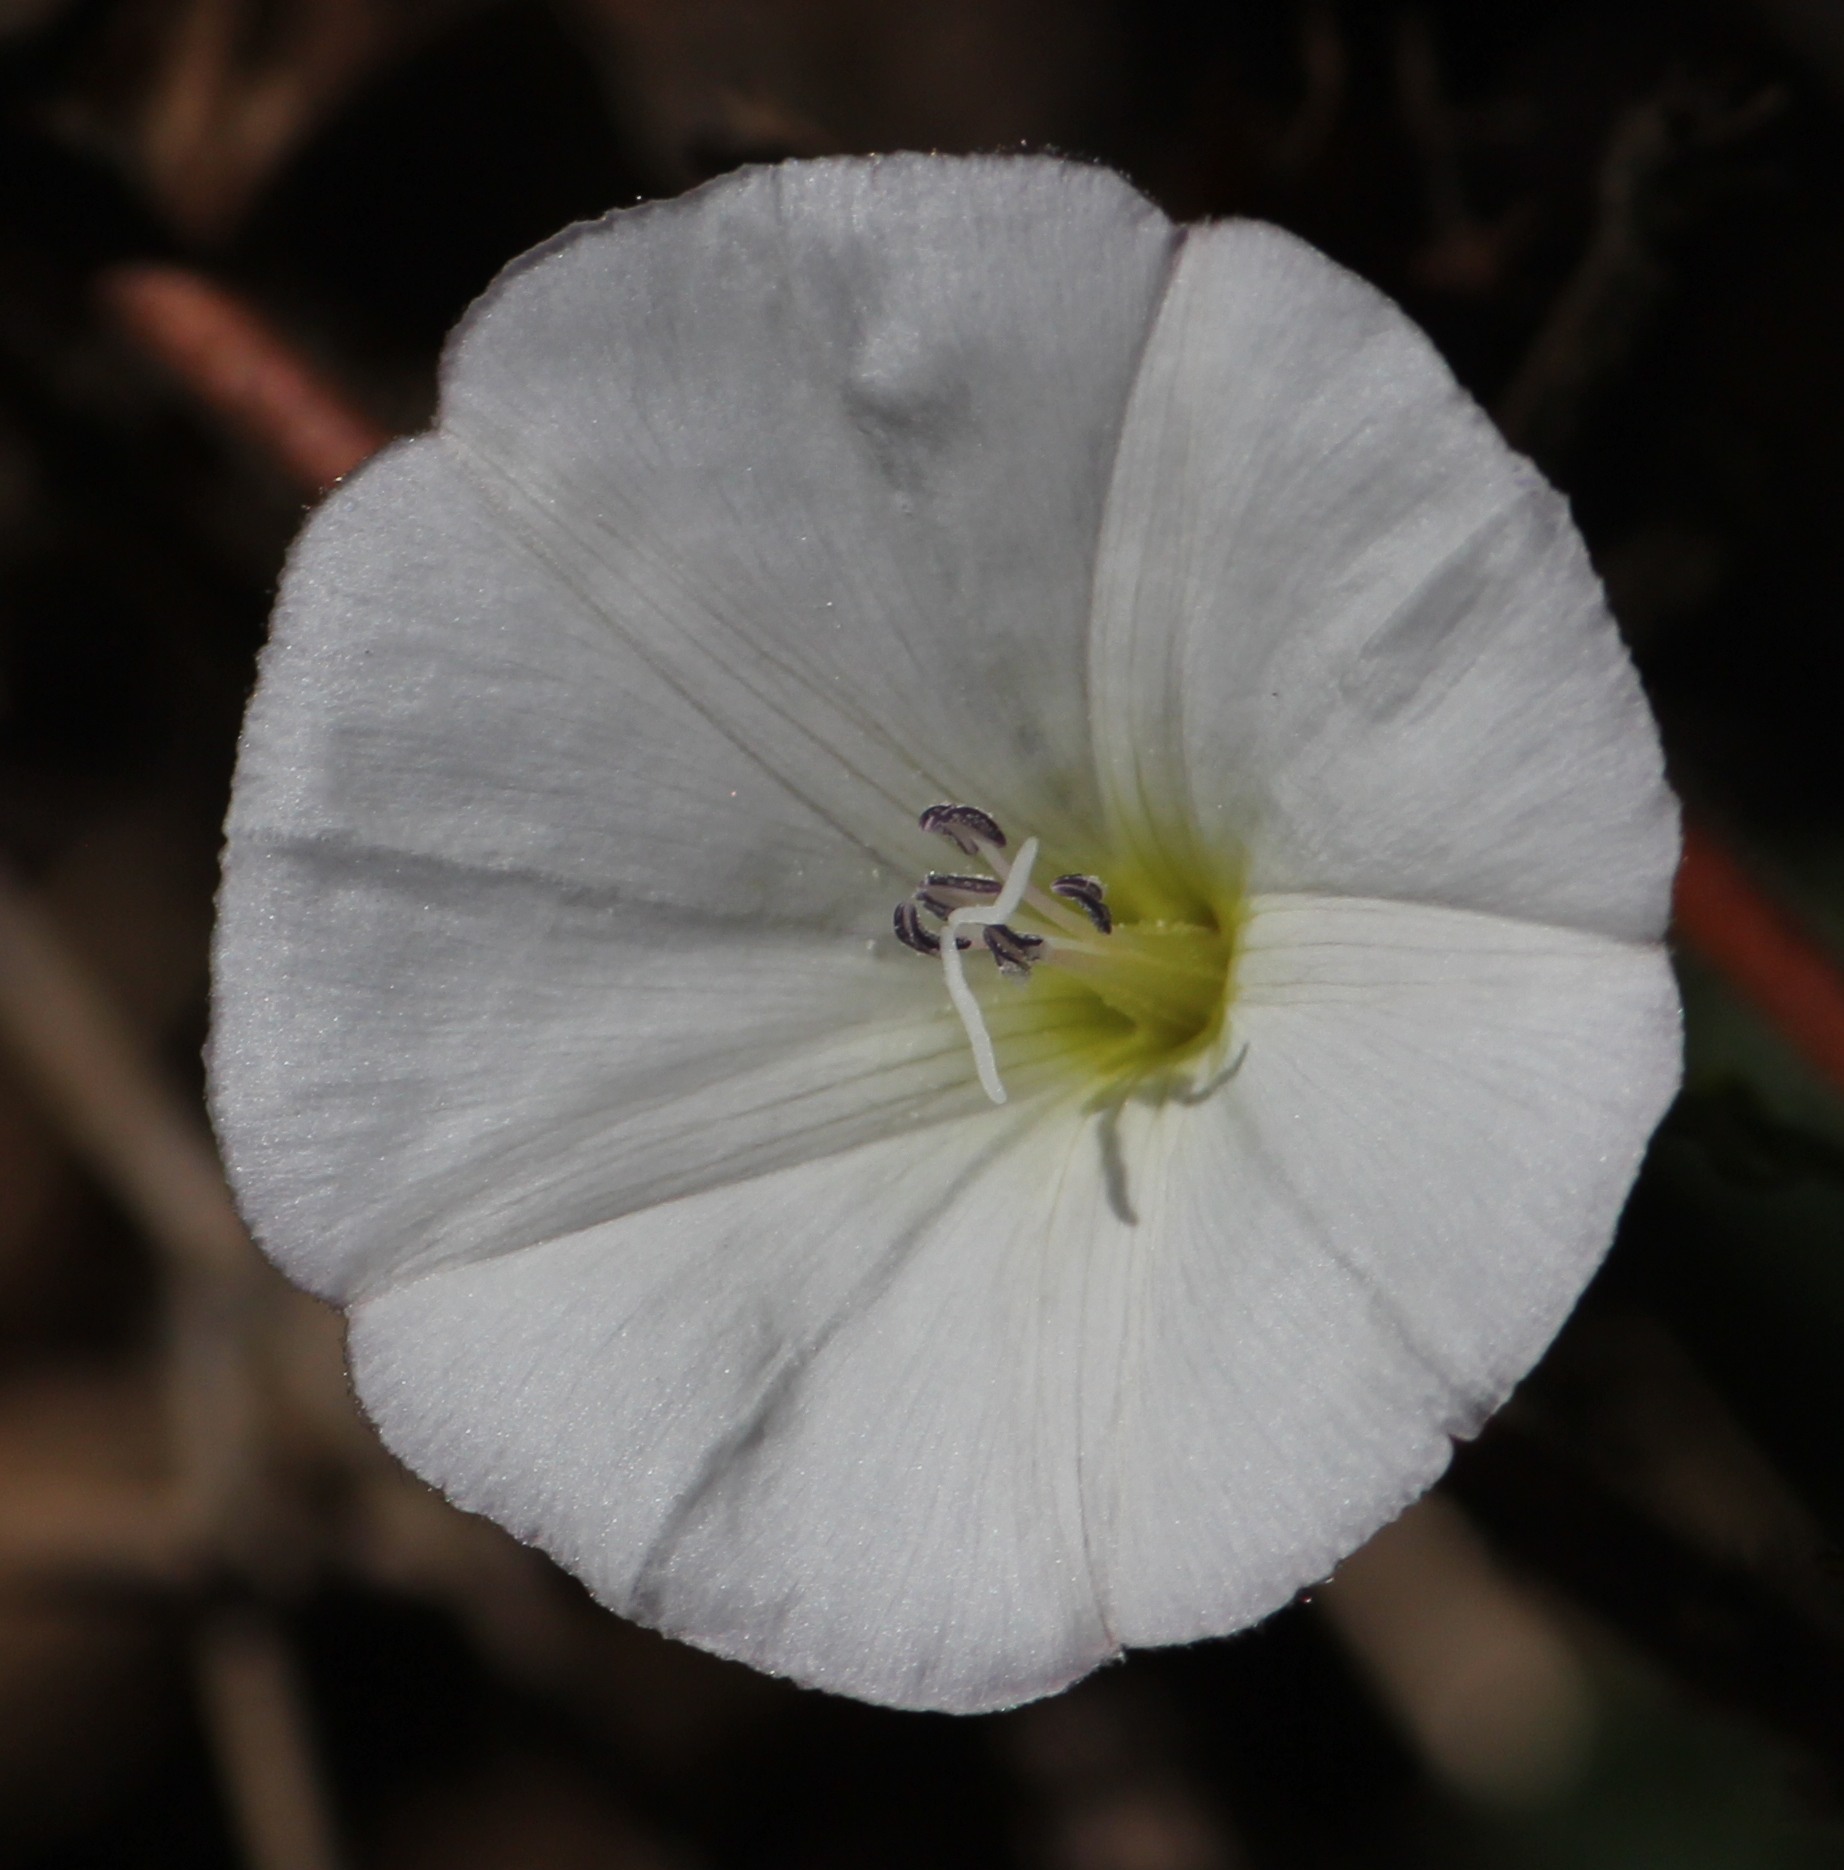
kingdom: Plantae
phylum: Tracheophyta
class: Magnoliopsida
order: Solanales
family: Convolvulaceae
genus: Convolvulus
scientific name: Convolvulus arvensis
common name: Field bindweed
